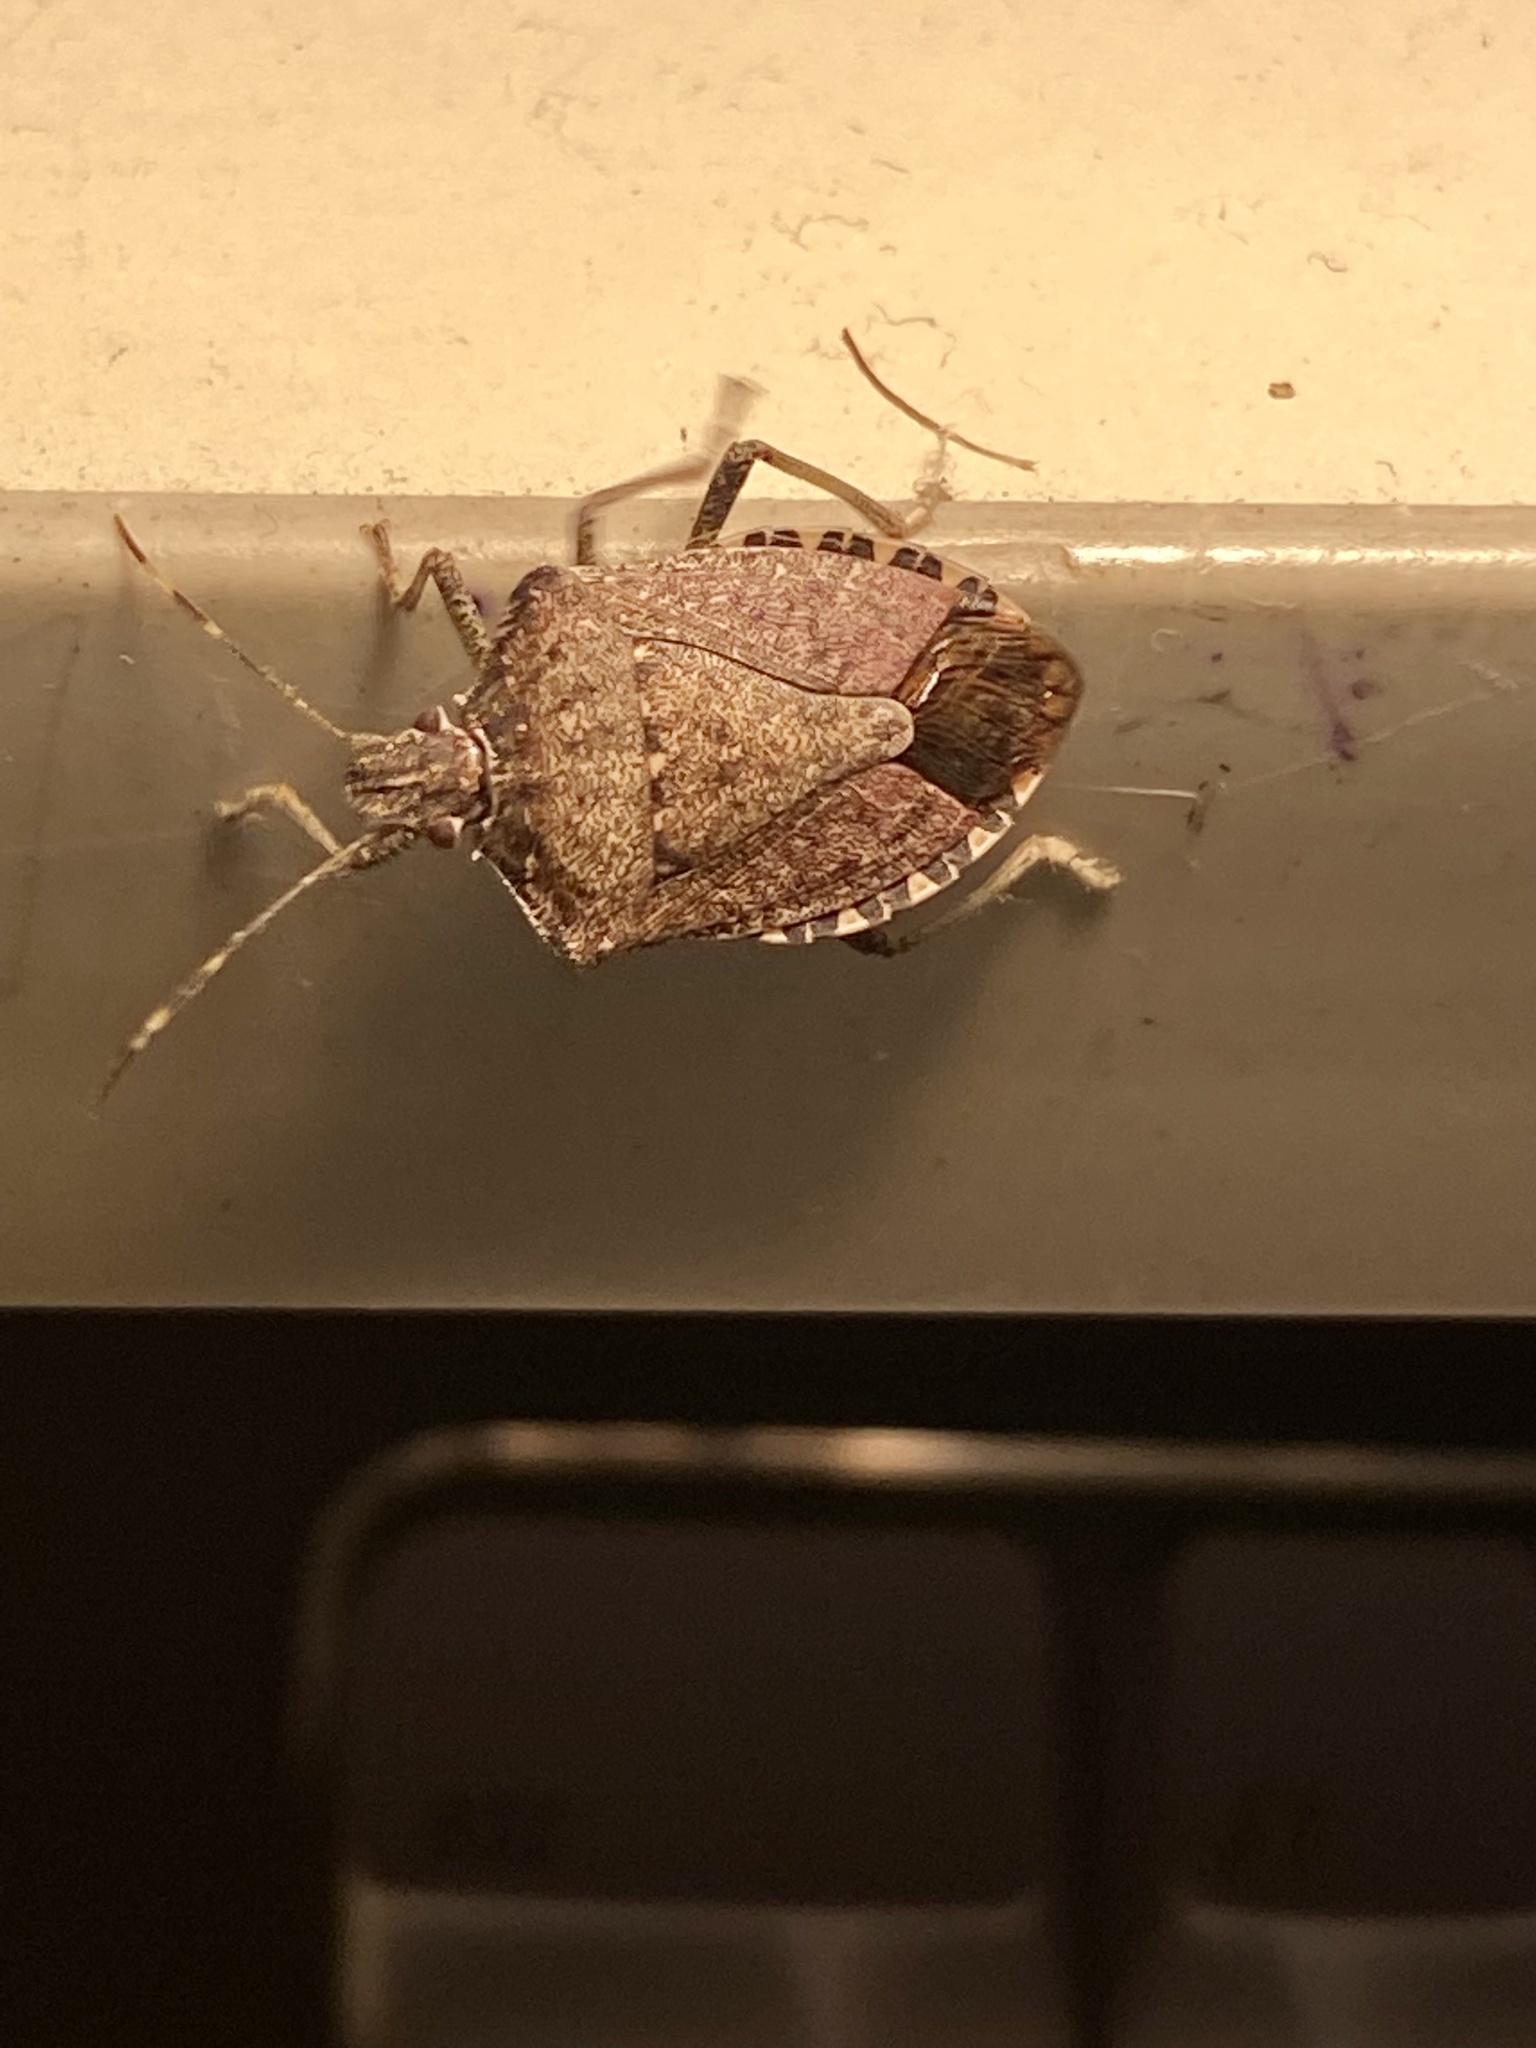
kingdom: Animalia
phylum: Arthropoda
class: Insecta
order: Hemiptera
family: Pentatomidae
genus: Halyomorpha
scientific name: Halyomorpha halys
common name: Brown marmorated stink bug
